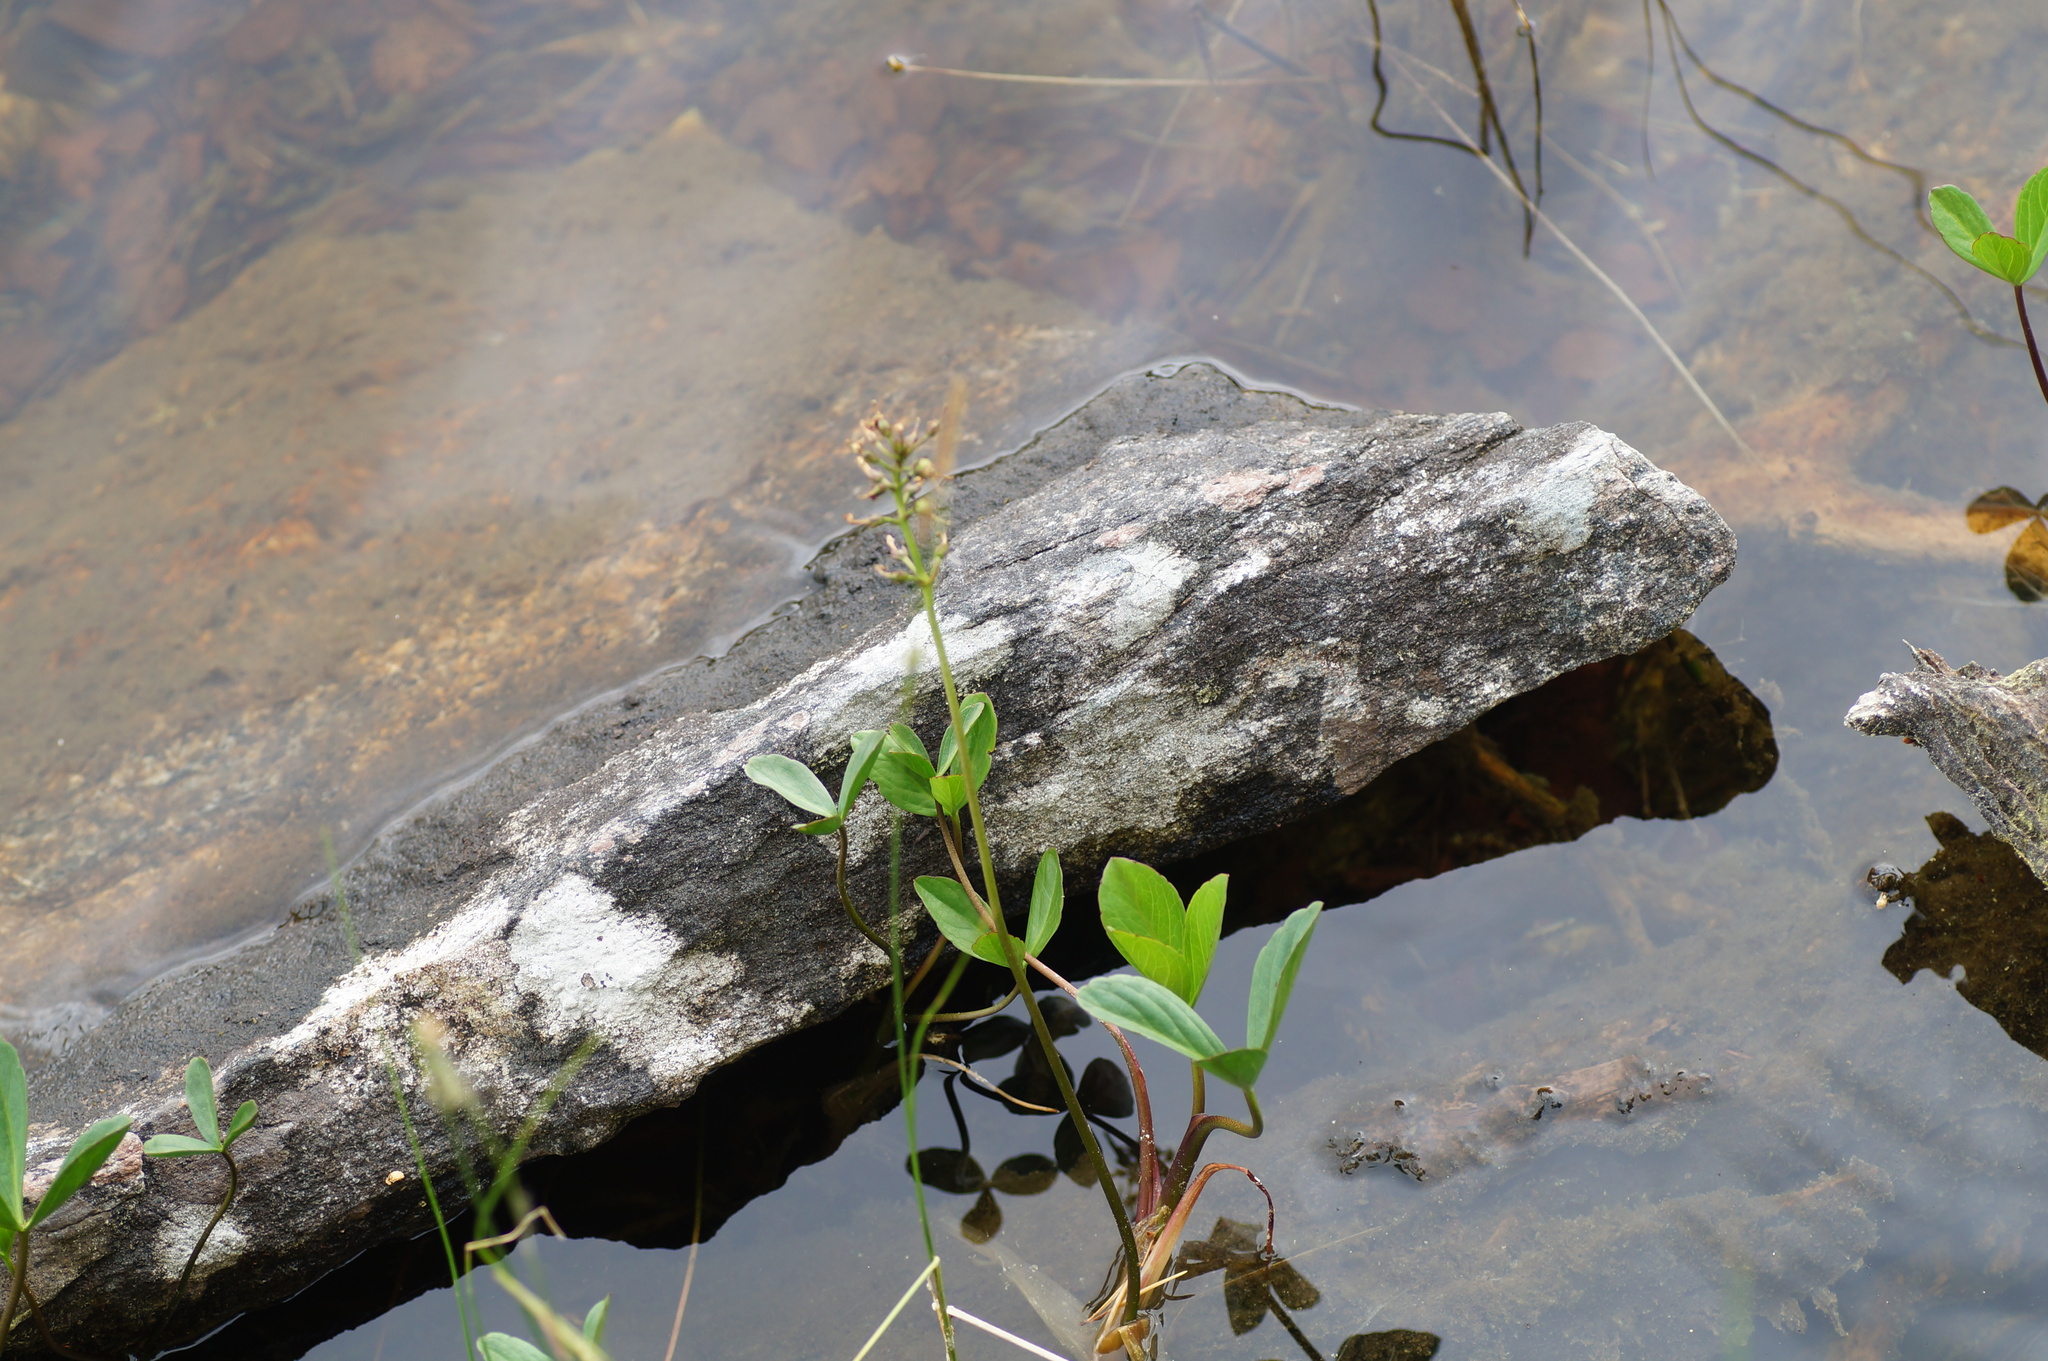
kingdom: Plantae
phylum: Tracheophyta
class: Magnoliopsida
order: Asterales
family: Menyanthaceae
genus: Menyanthes
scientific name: Menyanthes trifoliata
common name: Bogbean
